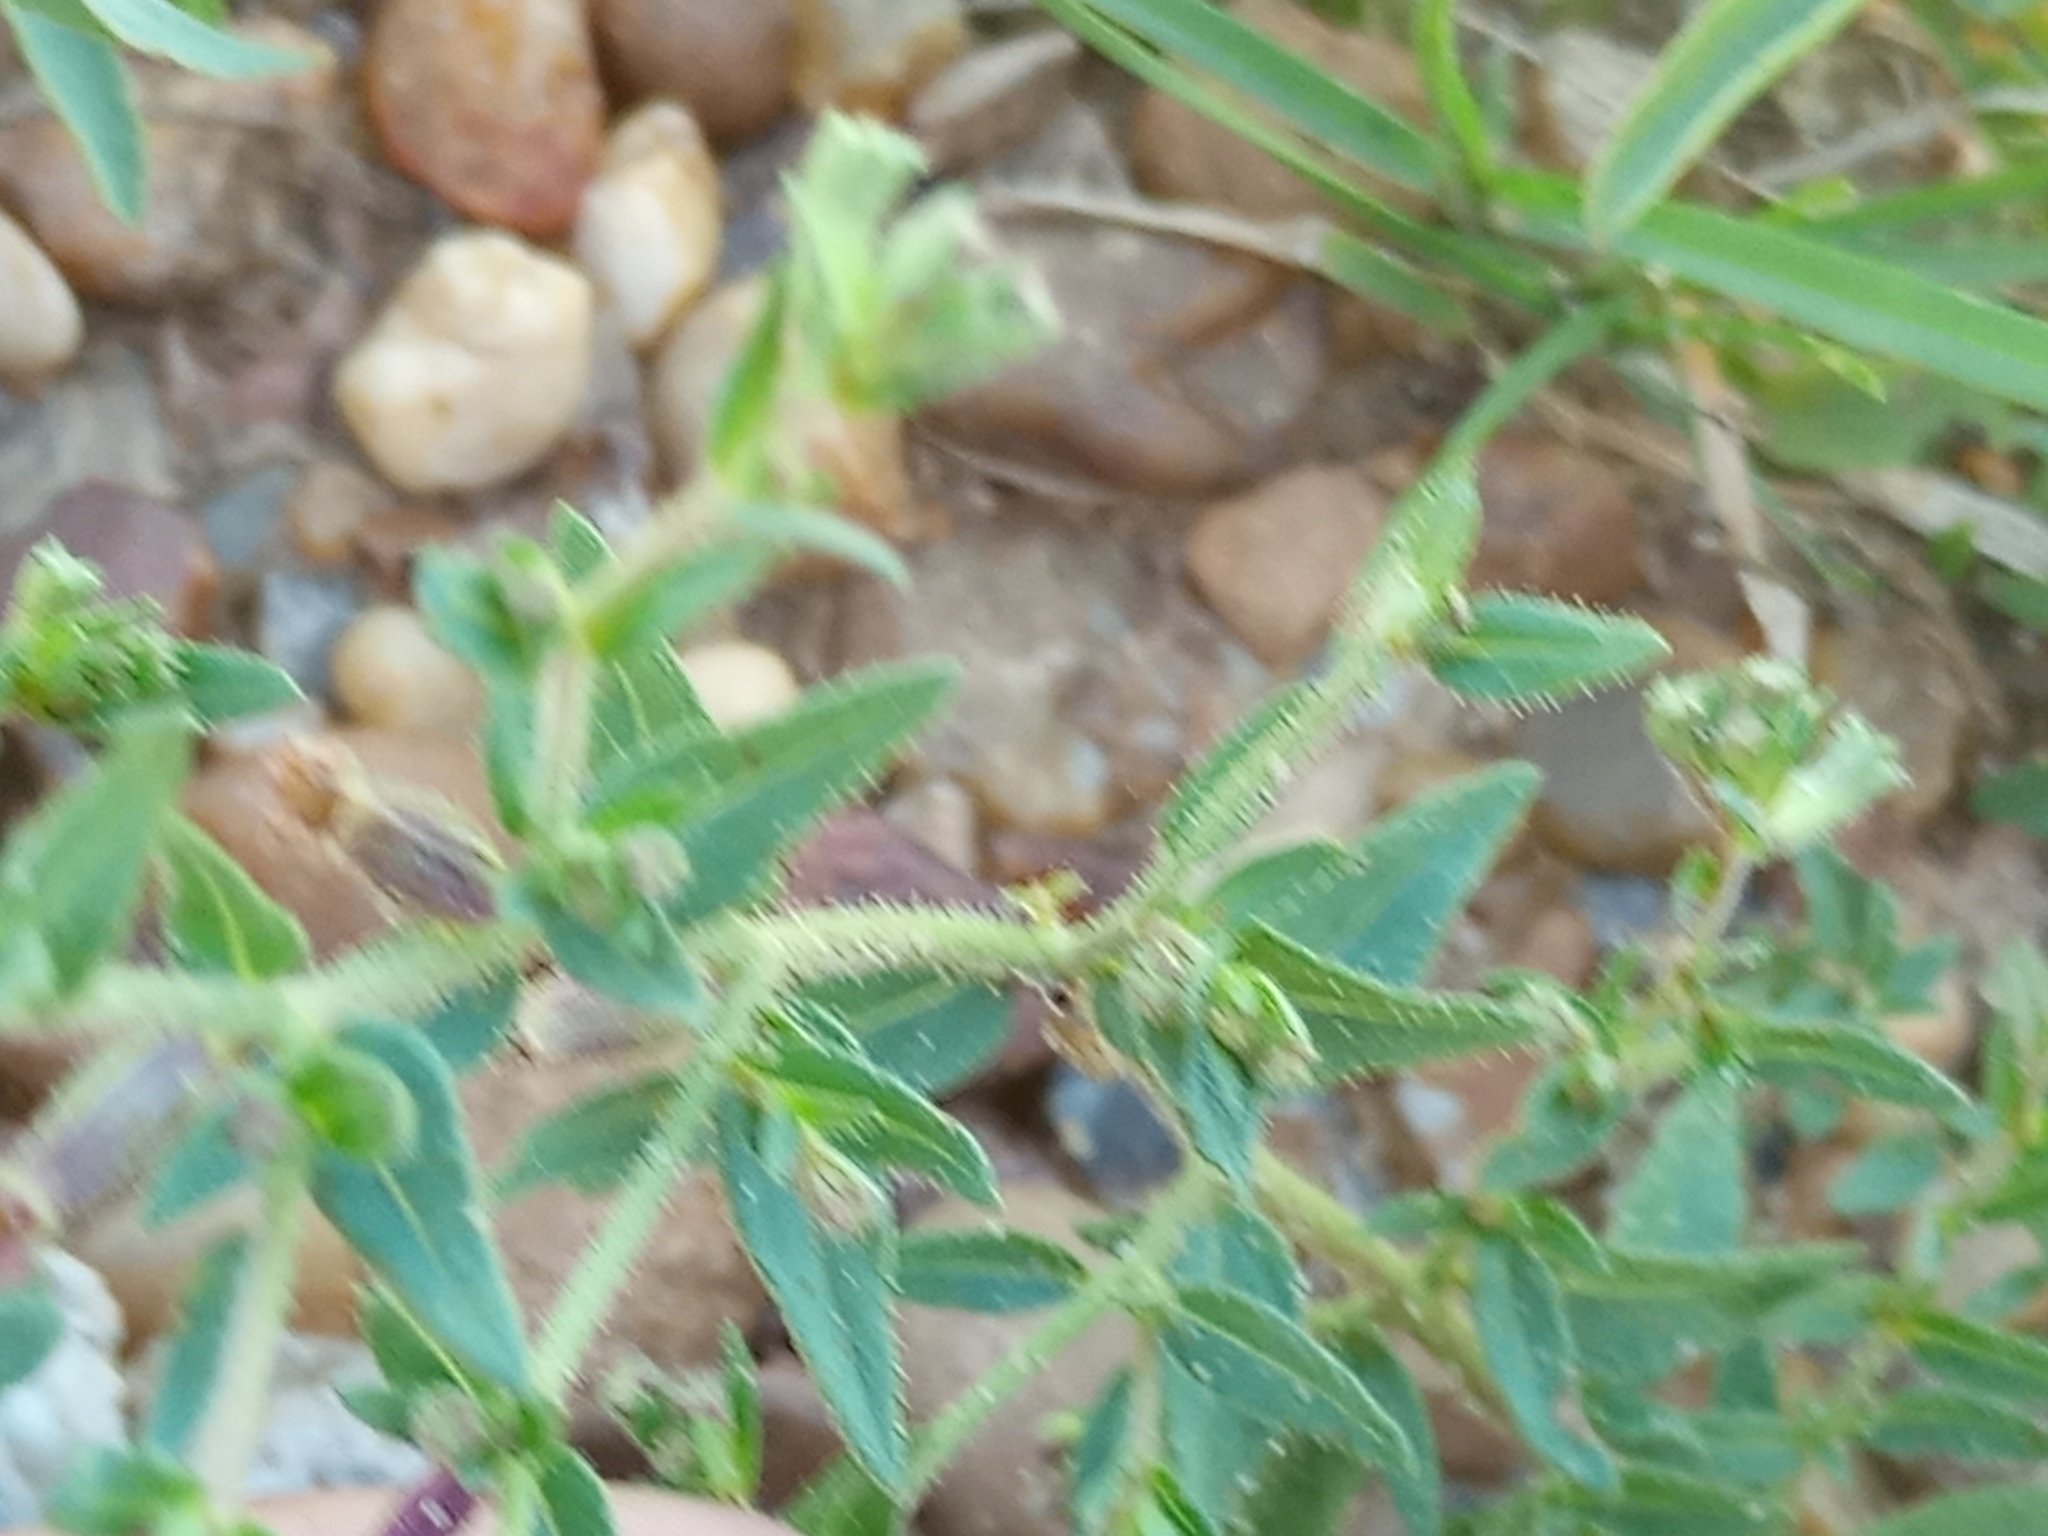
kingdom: Plantae
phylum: Tracheophyta
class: Magnoliopsida
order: Myrtales
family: Lythraceae
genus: Cuphea
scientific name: Cuphea glutinosa
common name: Sticky waxweed
